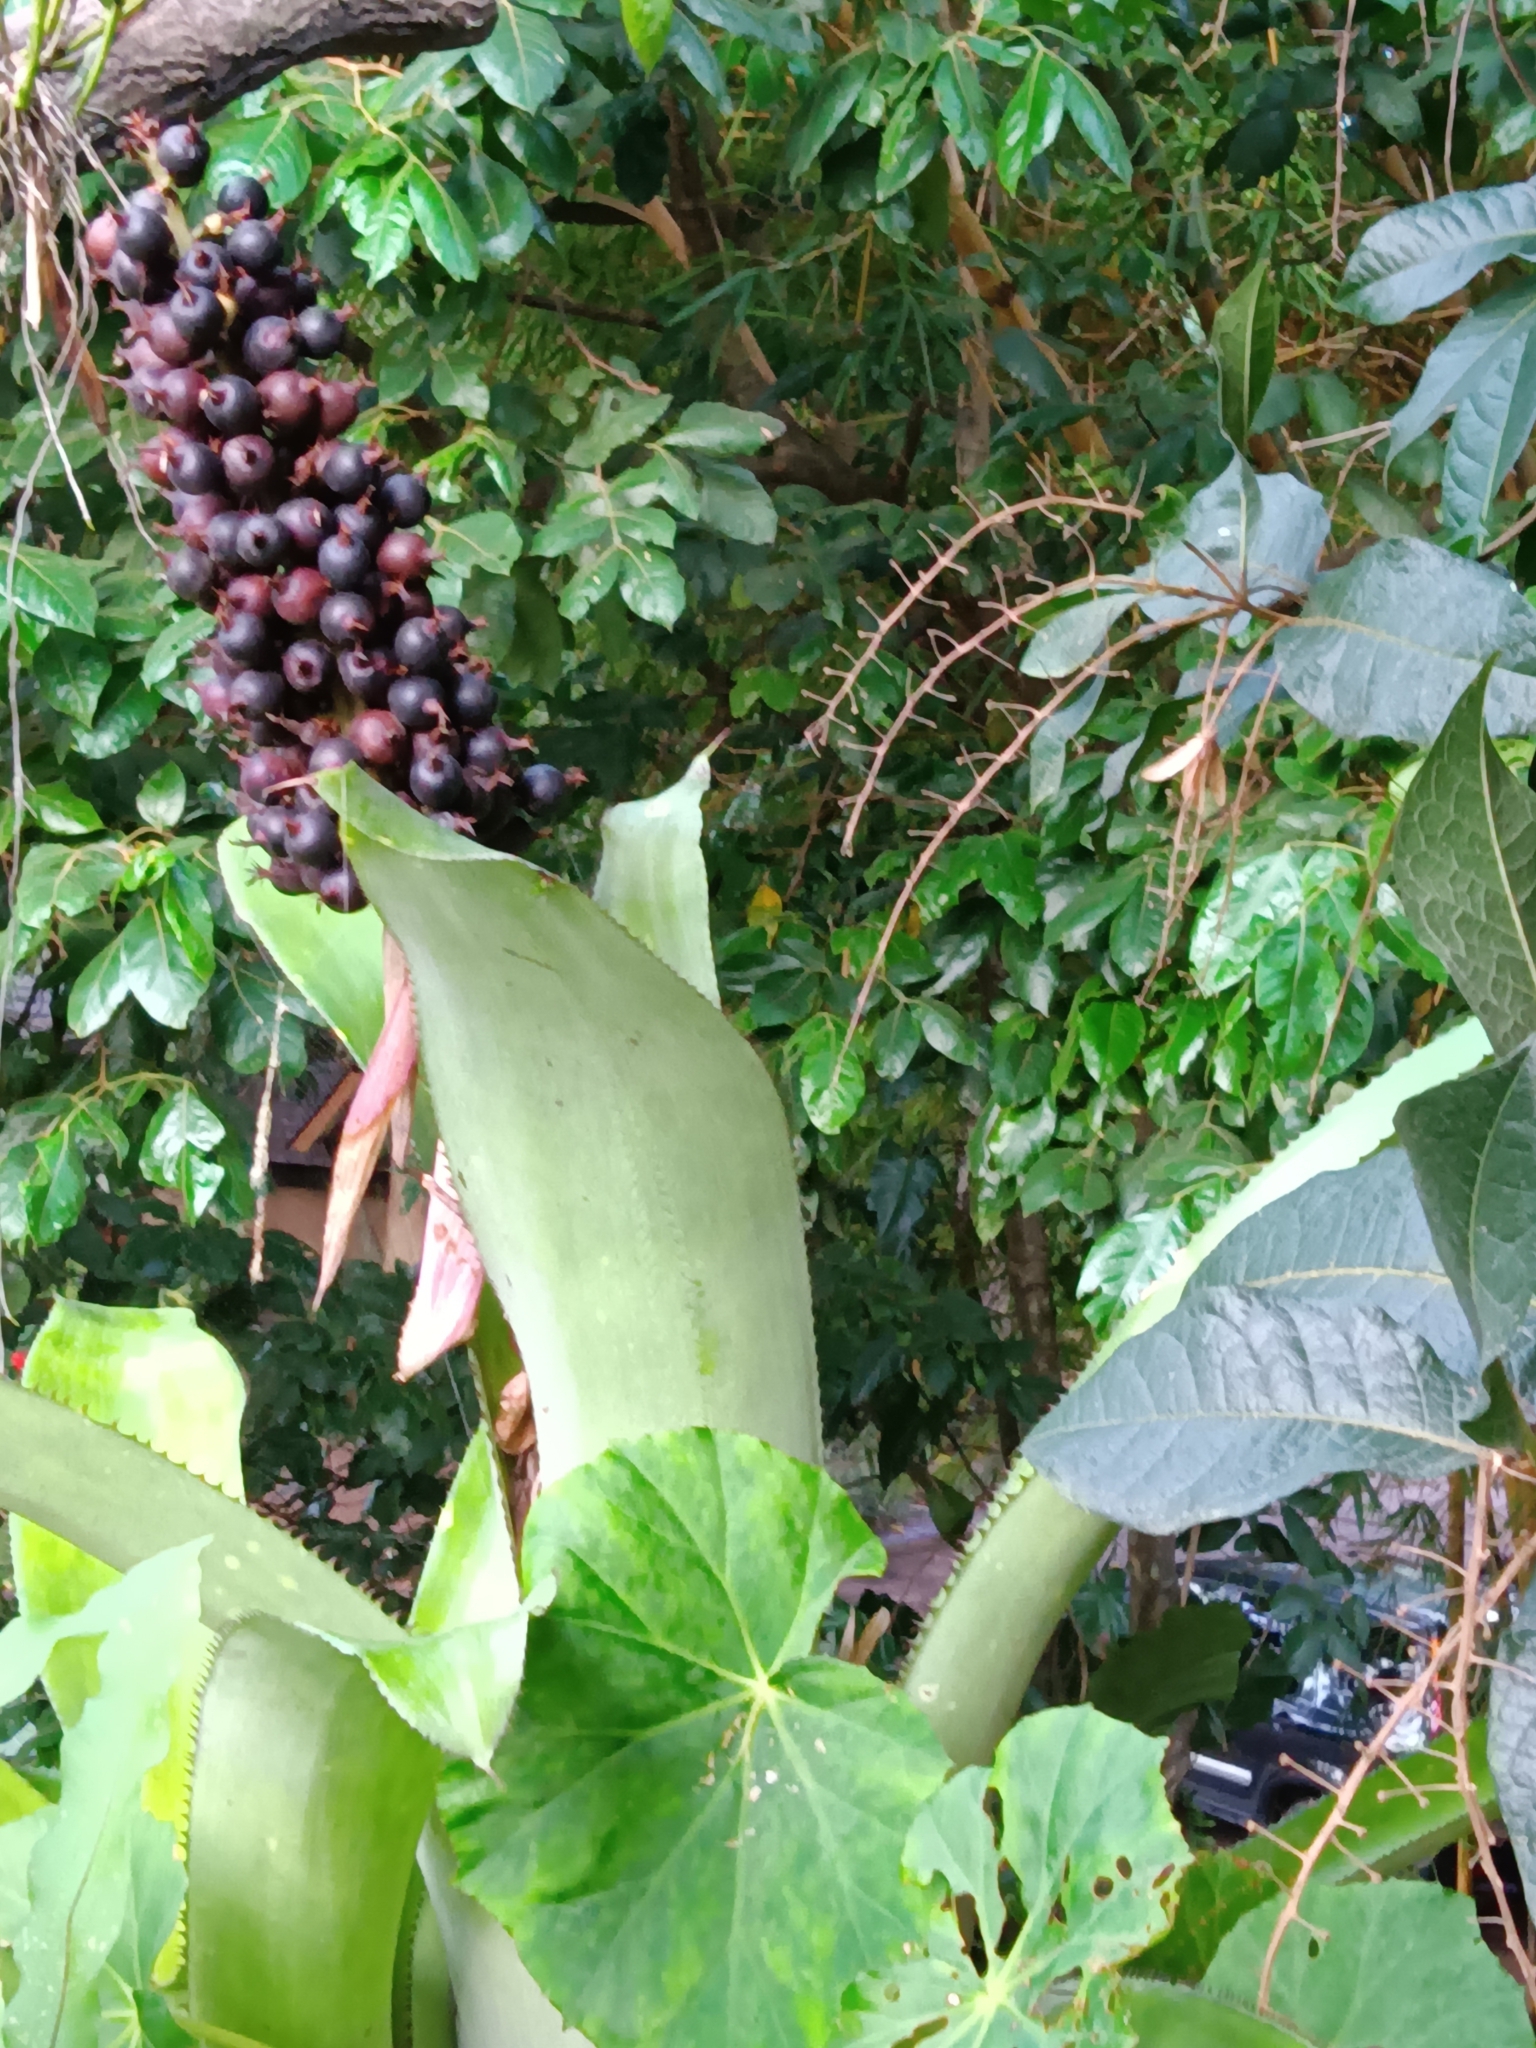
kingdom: Plantae
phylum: Tracheophyta
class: Liliopsida
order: Poales
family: Bromeliaceae
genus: Aechmea
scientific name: Aechmea matudae
